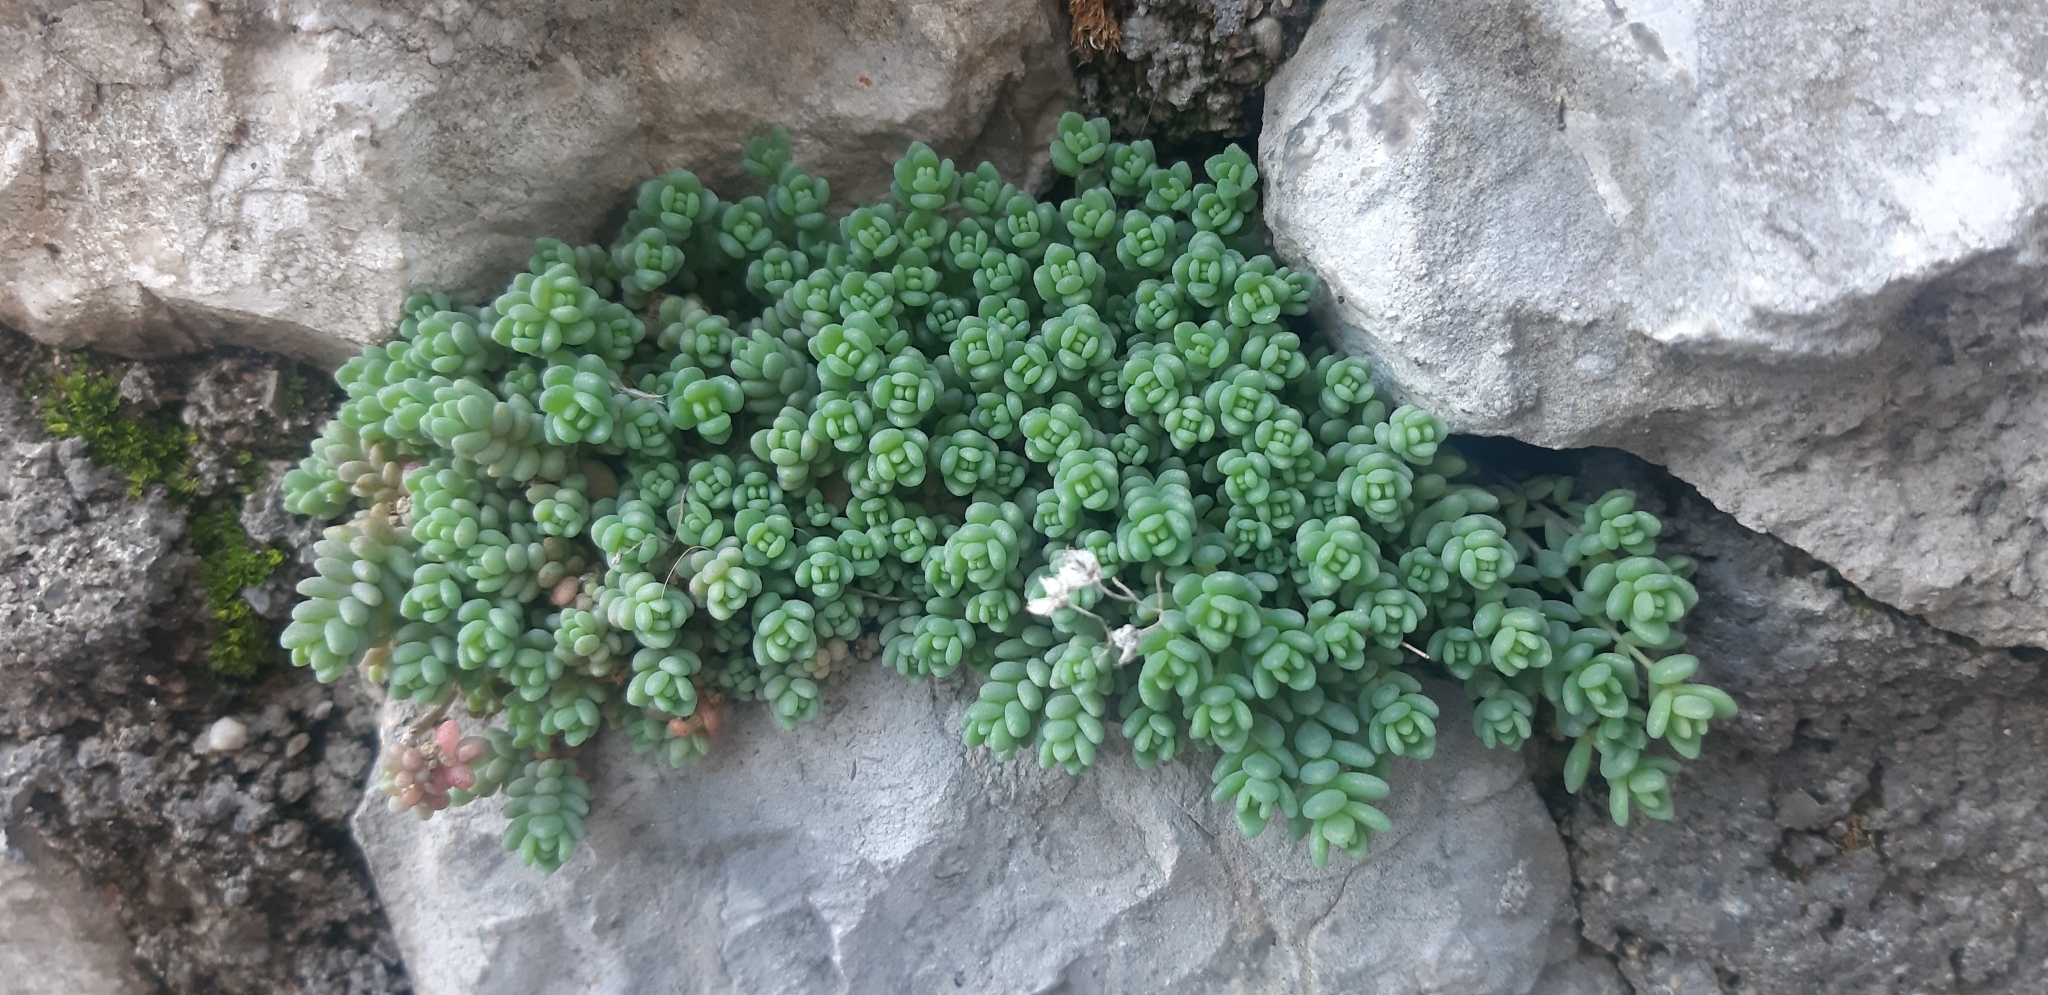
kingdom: Plantae
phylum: Tracheophyta
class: Magnoliopsida
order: Saxifragales
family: Crassulaceae
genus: Sedum
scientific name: Sedum dasyphyllum
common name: Thick-leaf stonecrop
